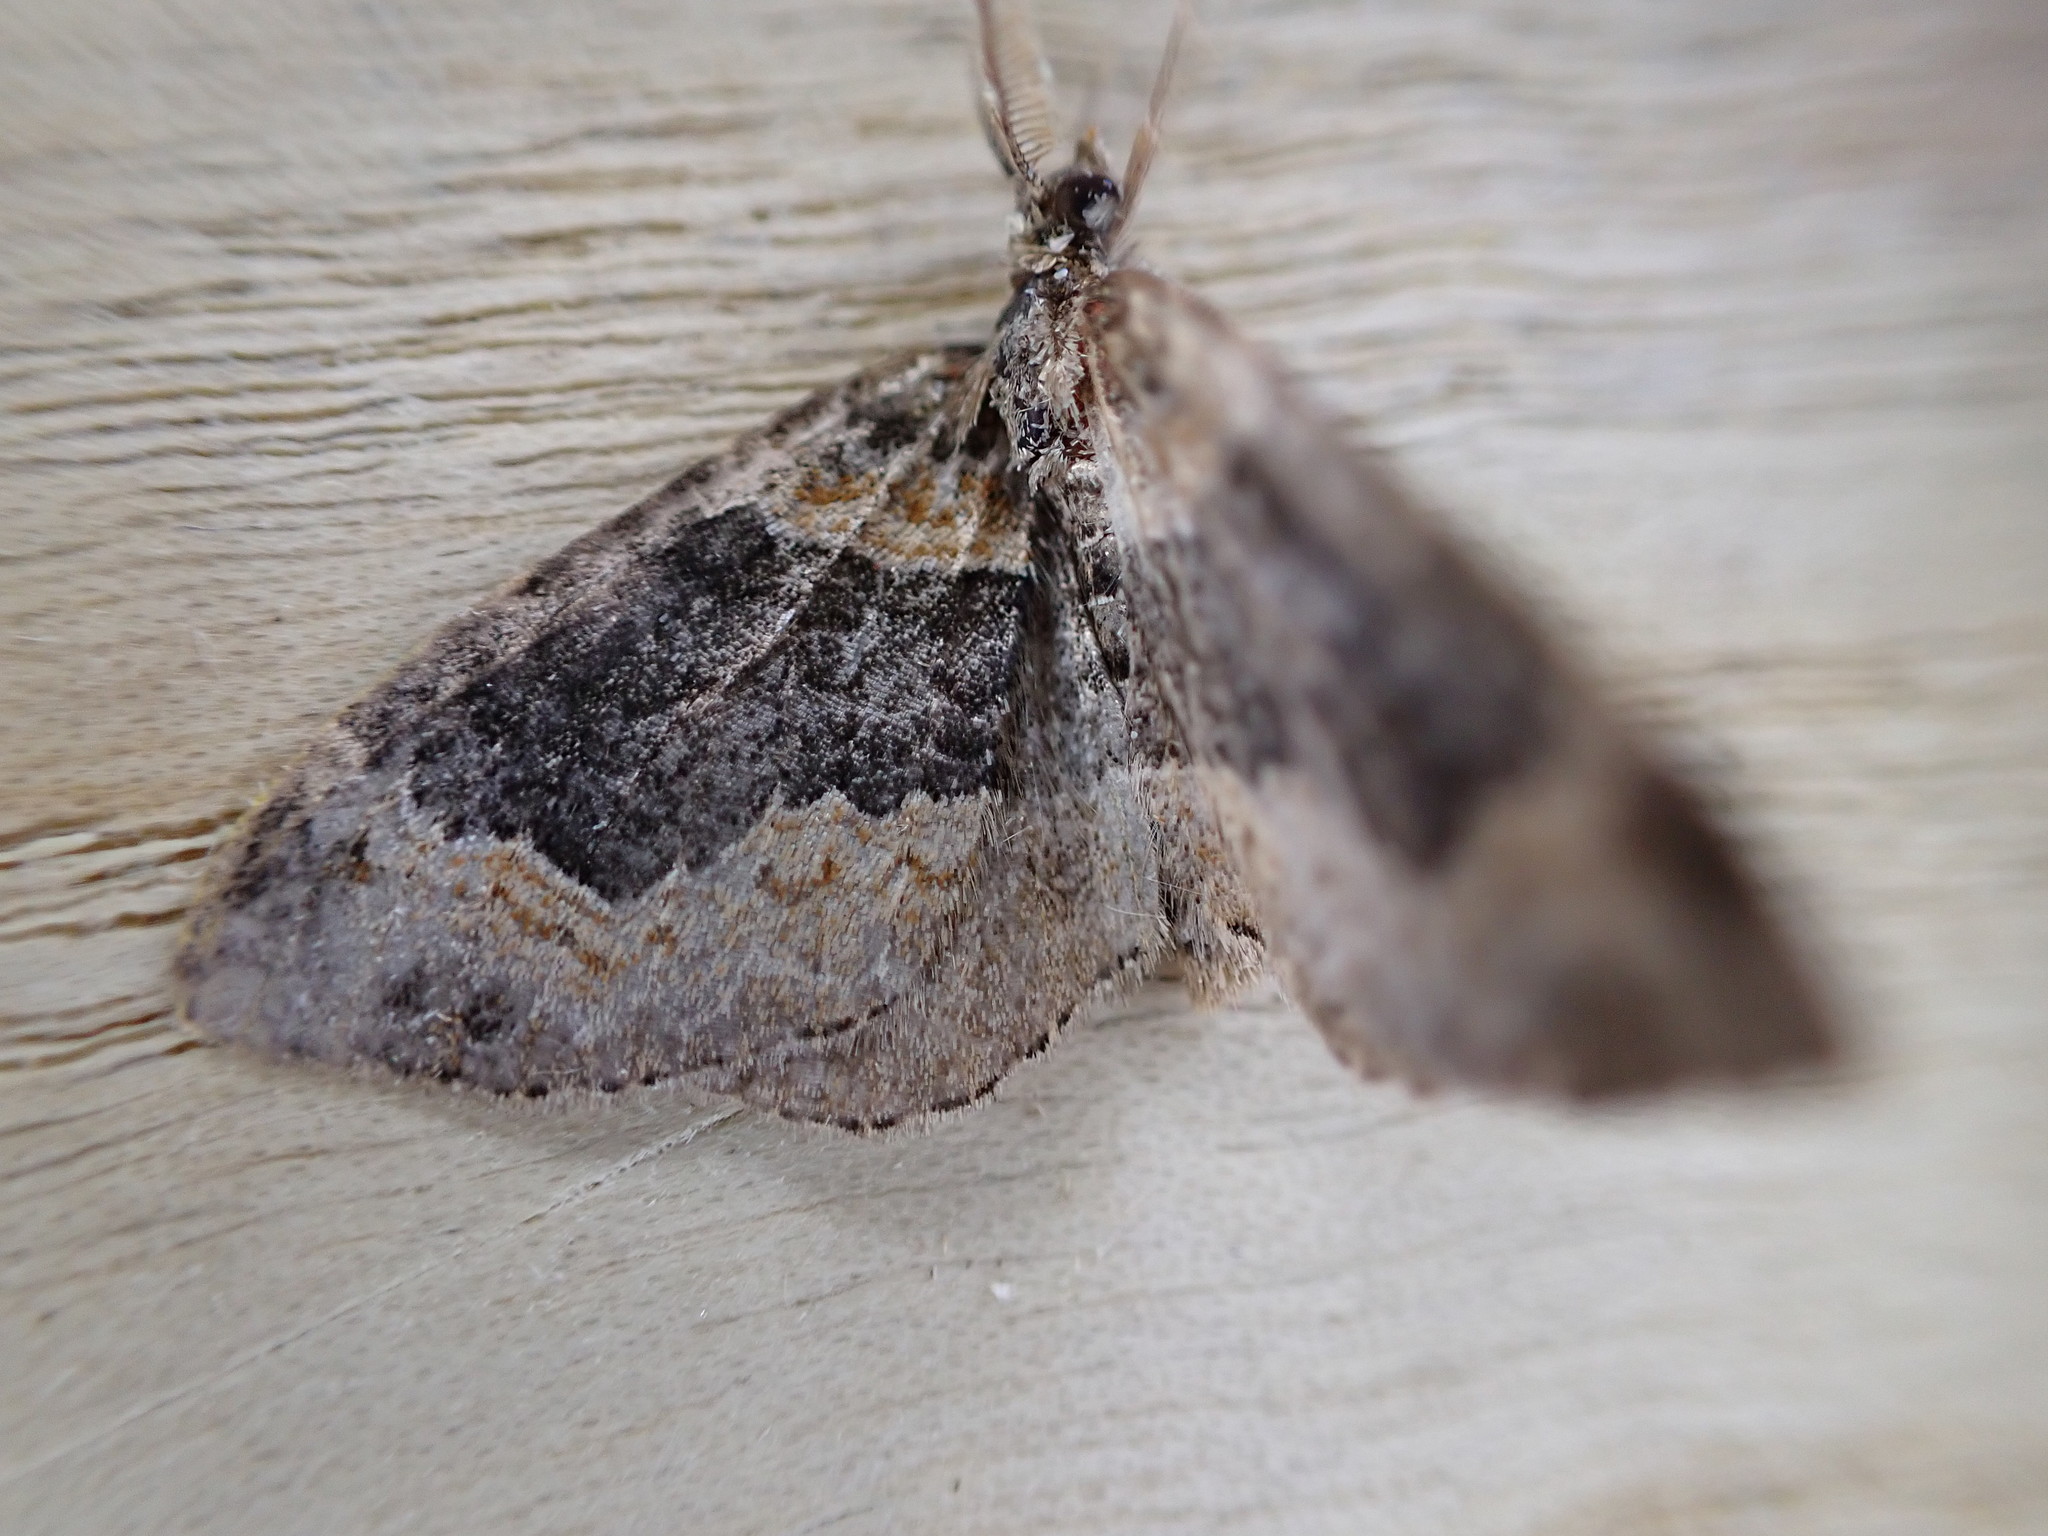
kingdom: Animalia
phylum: Arthropoda
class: Insecta
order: Lepidoptera
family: Geometridae
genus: Xanthorhoe
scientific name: Xanthorhoe ferrugata
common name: Dark-barred twin-spot carpet
